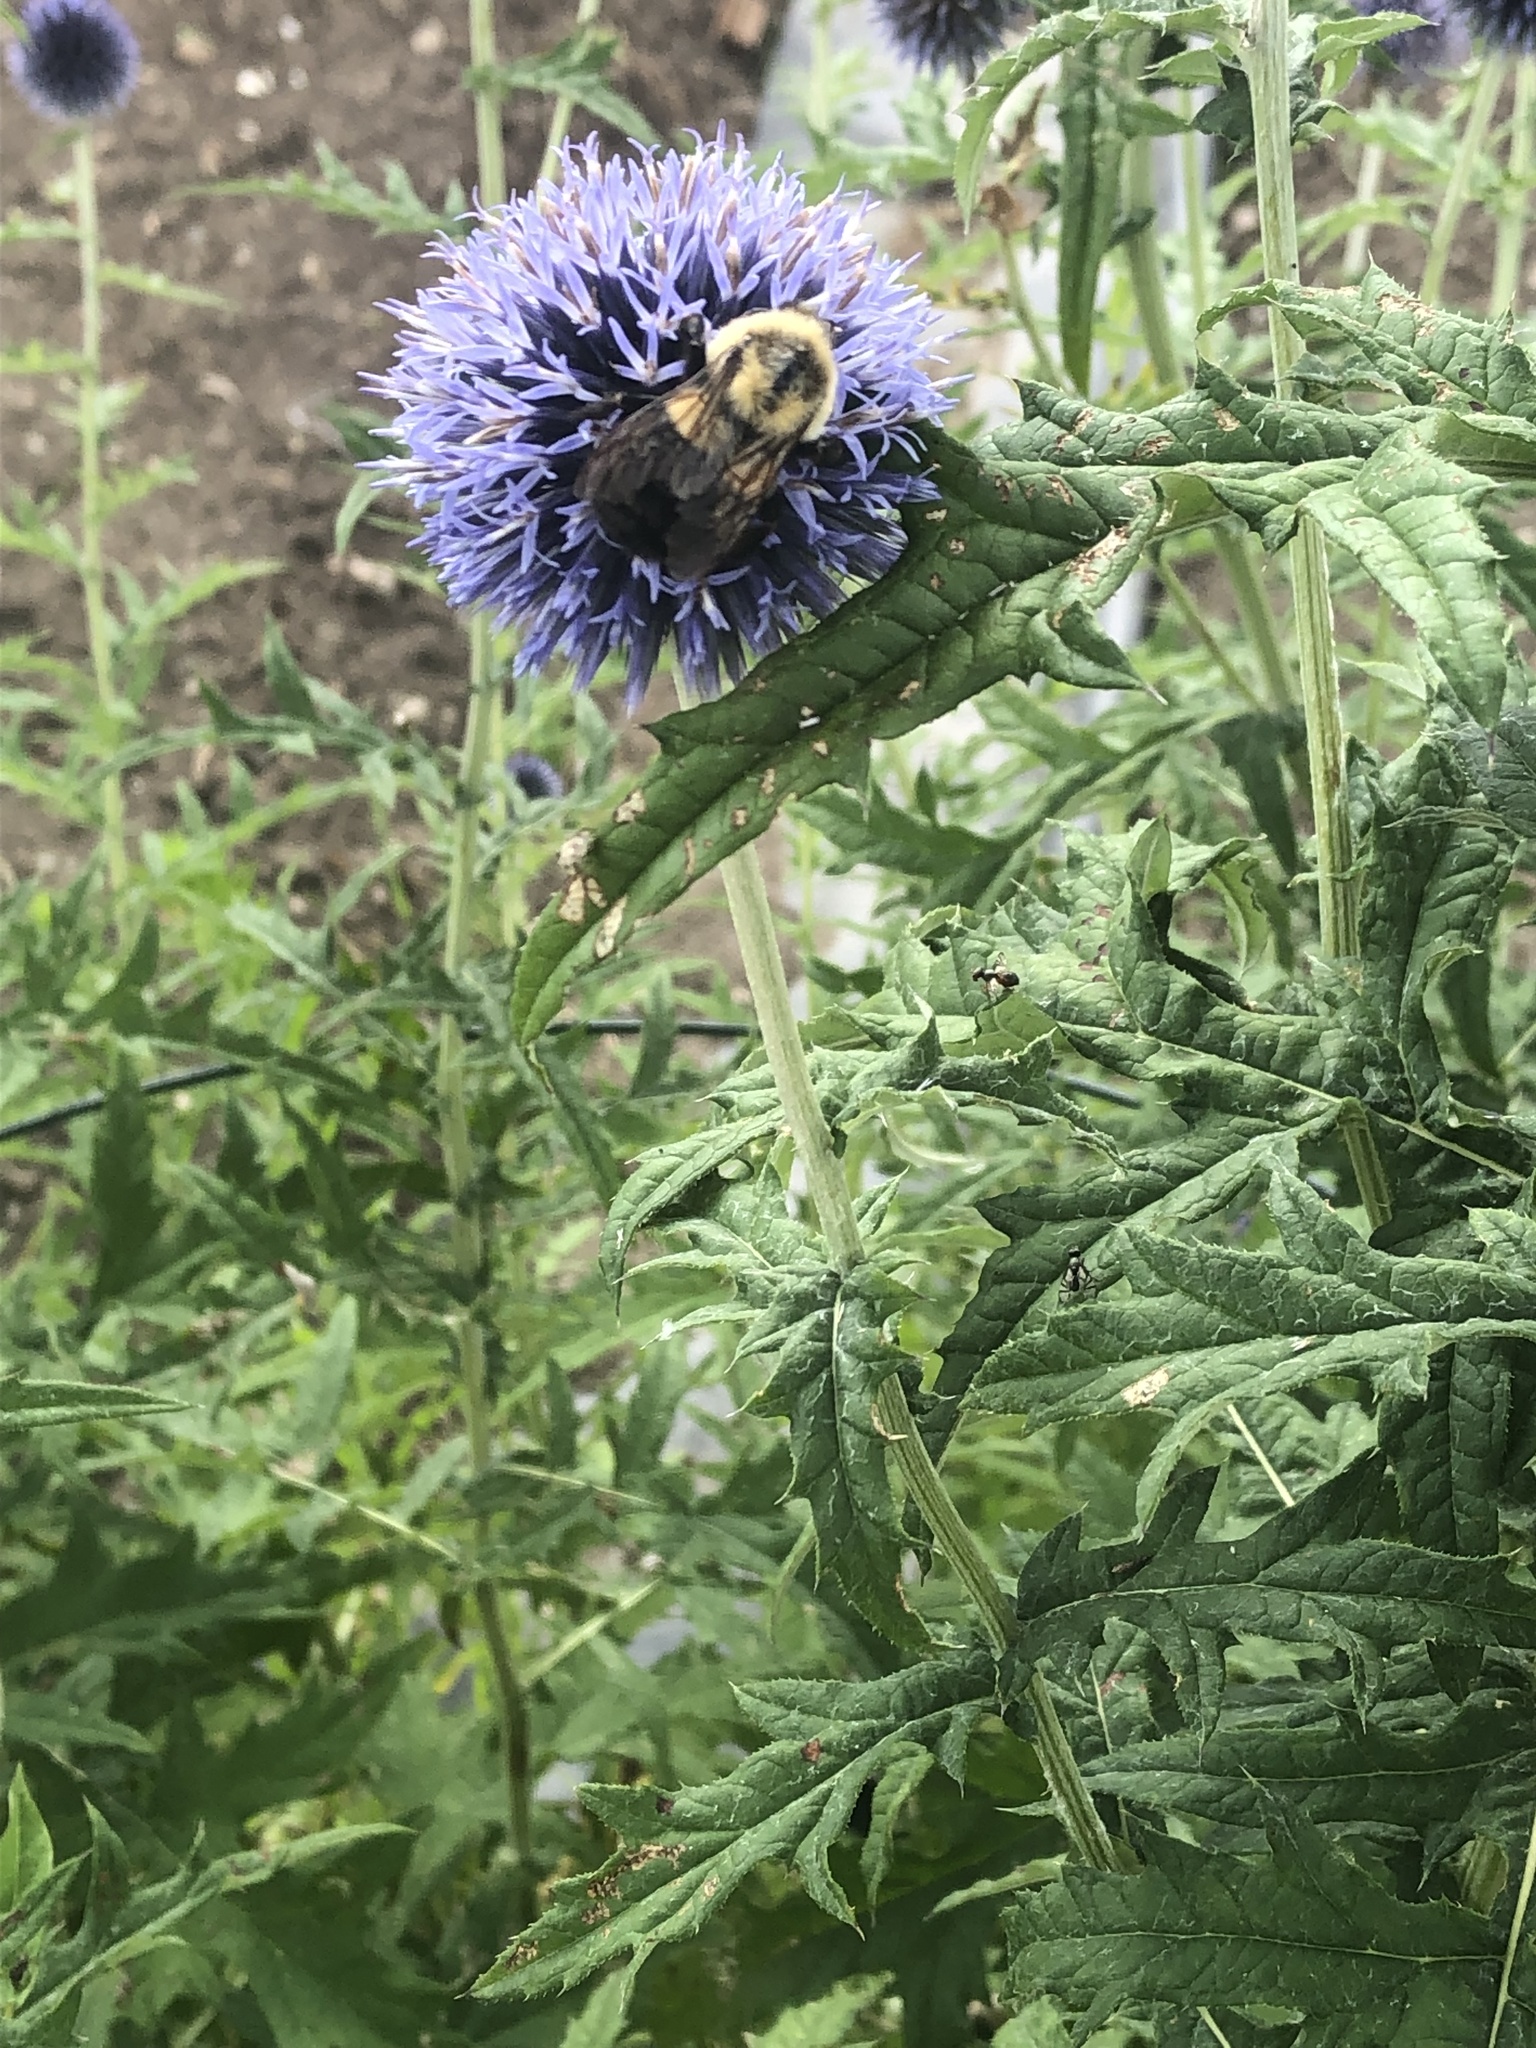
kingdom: Animalia
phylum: Arthropoda
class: Insecta
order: Hymenoptera
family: Apidae
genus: Bombus
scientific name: Bombus impatiens
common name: Common eastern bumble bee
